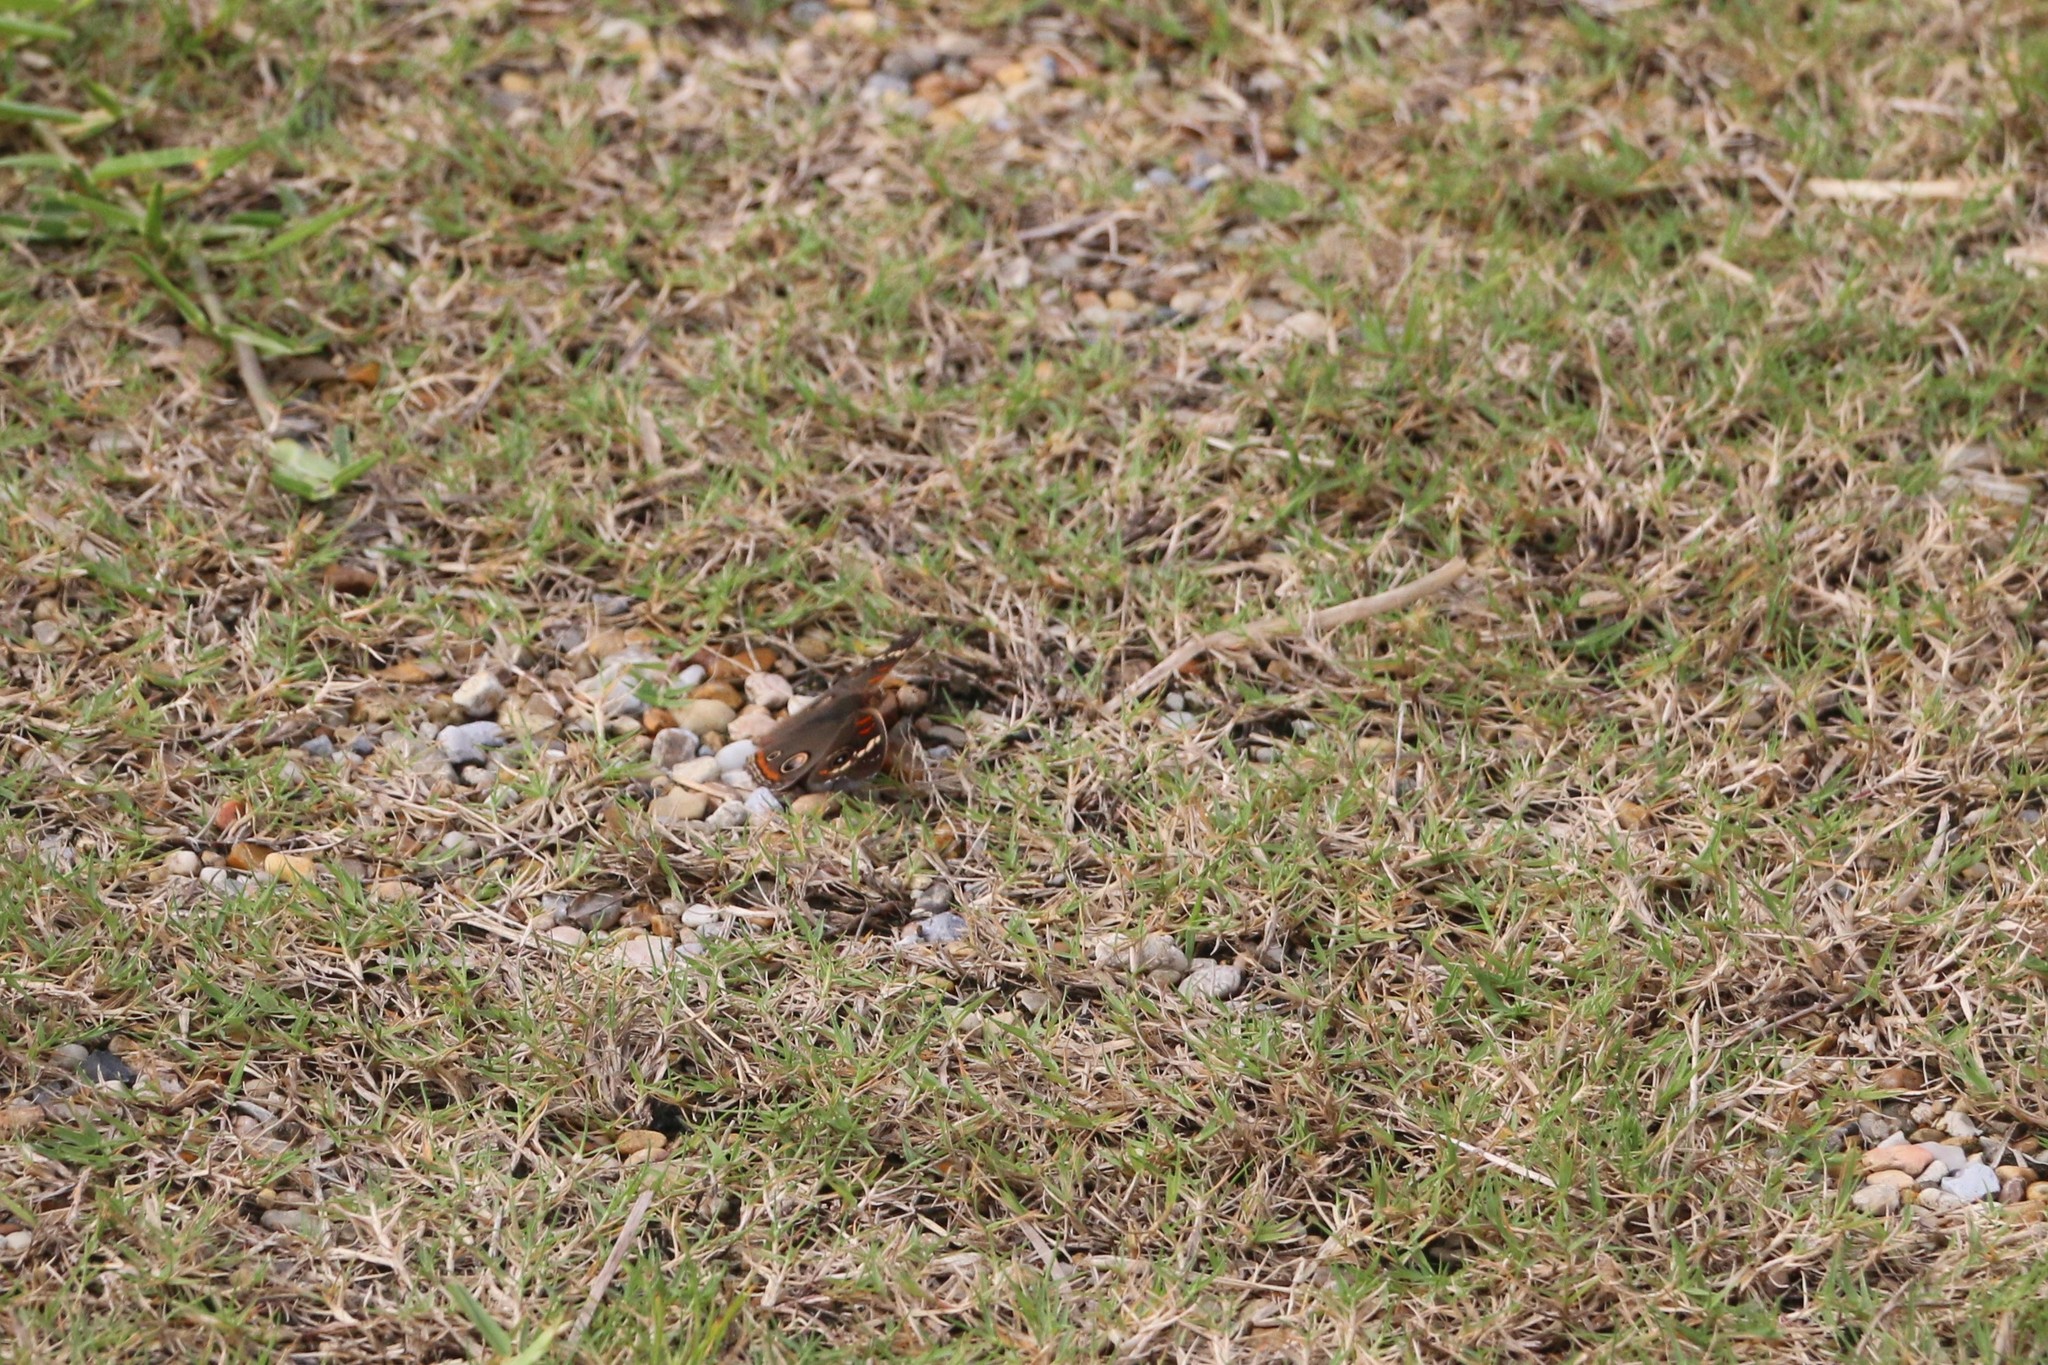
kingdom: Animalia
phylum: Arthropoda
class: Insecta
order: Lepidoptera
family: Nymphalidae
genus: Junonia
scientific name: Junonia coenia
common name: Common buckeye
